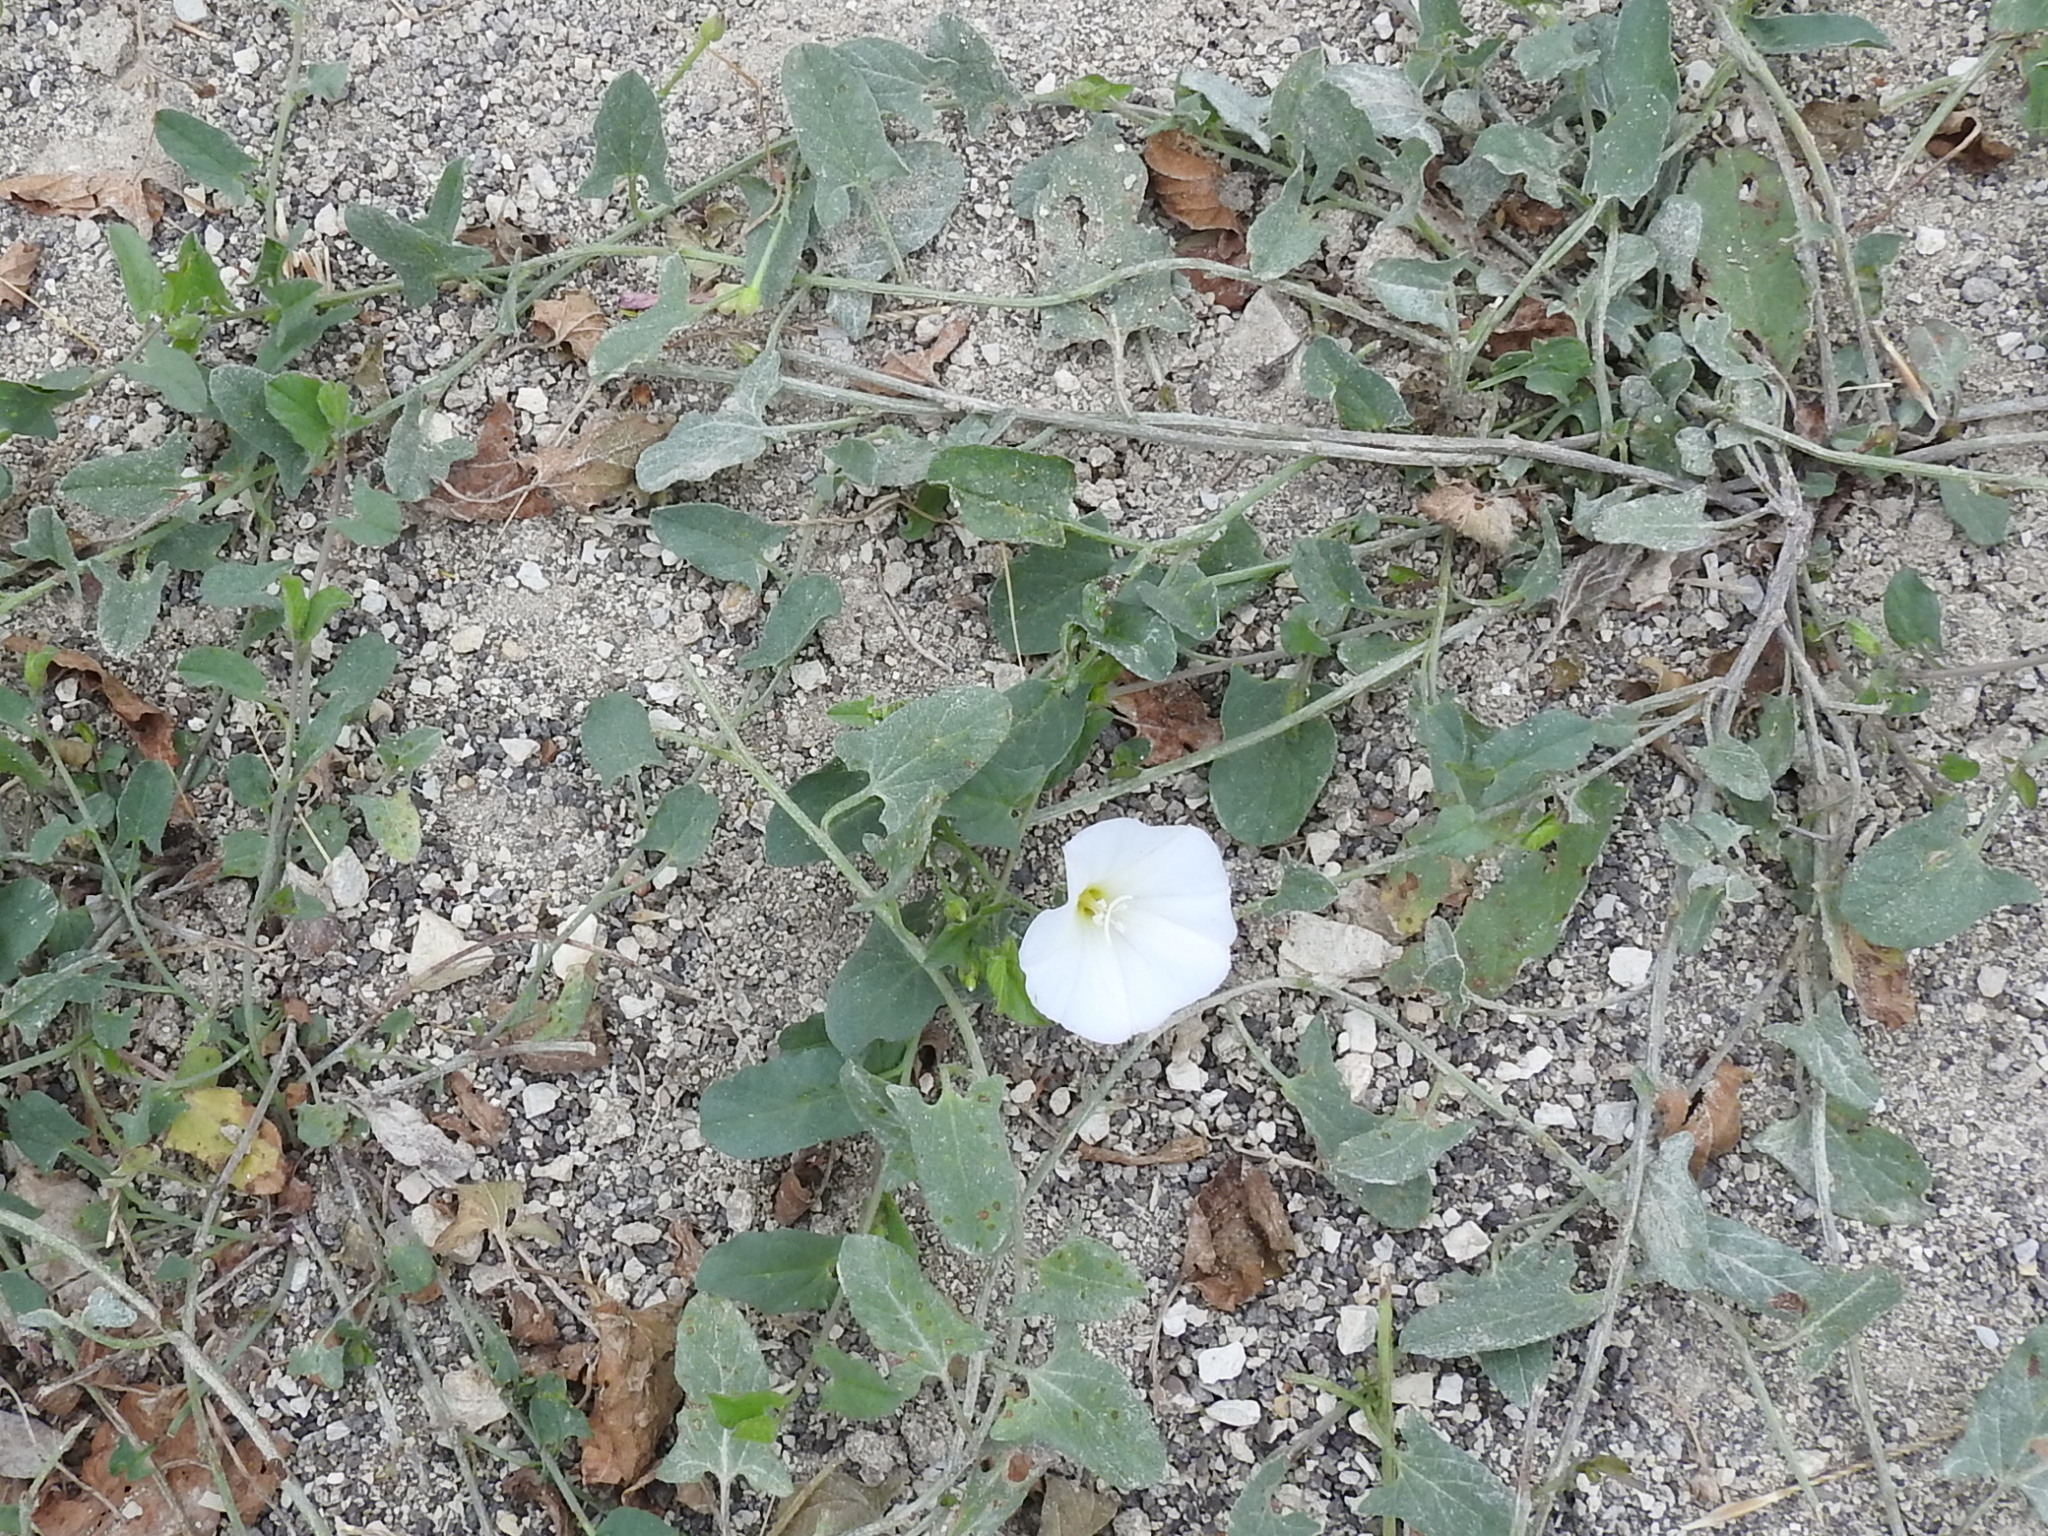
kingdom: Plantae
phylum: Tracheophyta
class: Magnoliopsida
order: Solanales
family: Convolvulaceae
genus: Convolvulus
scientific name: Convolvulus arvensis
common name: Field bindweed
